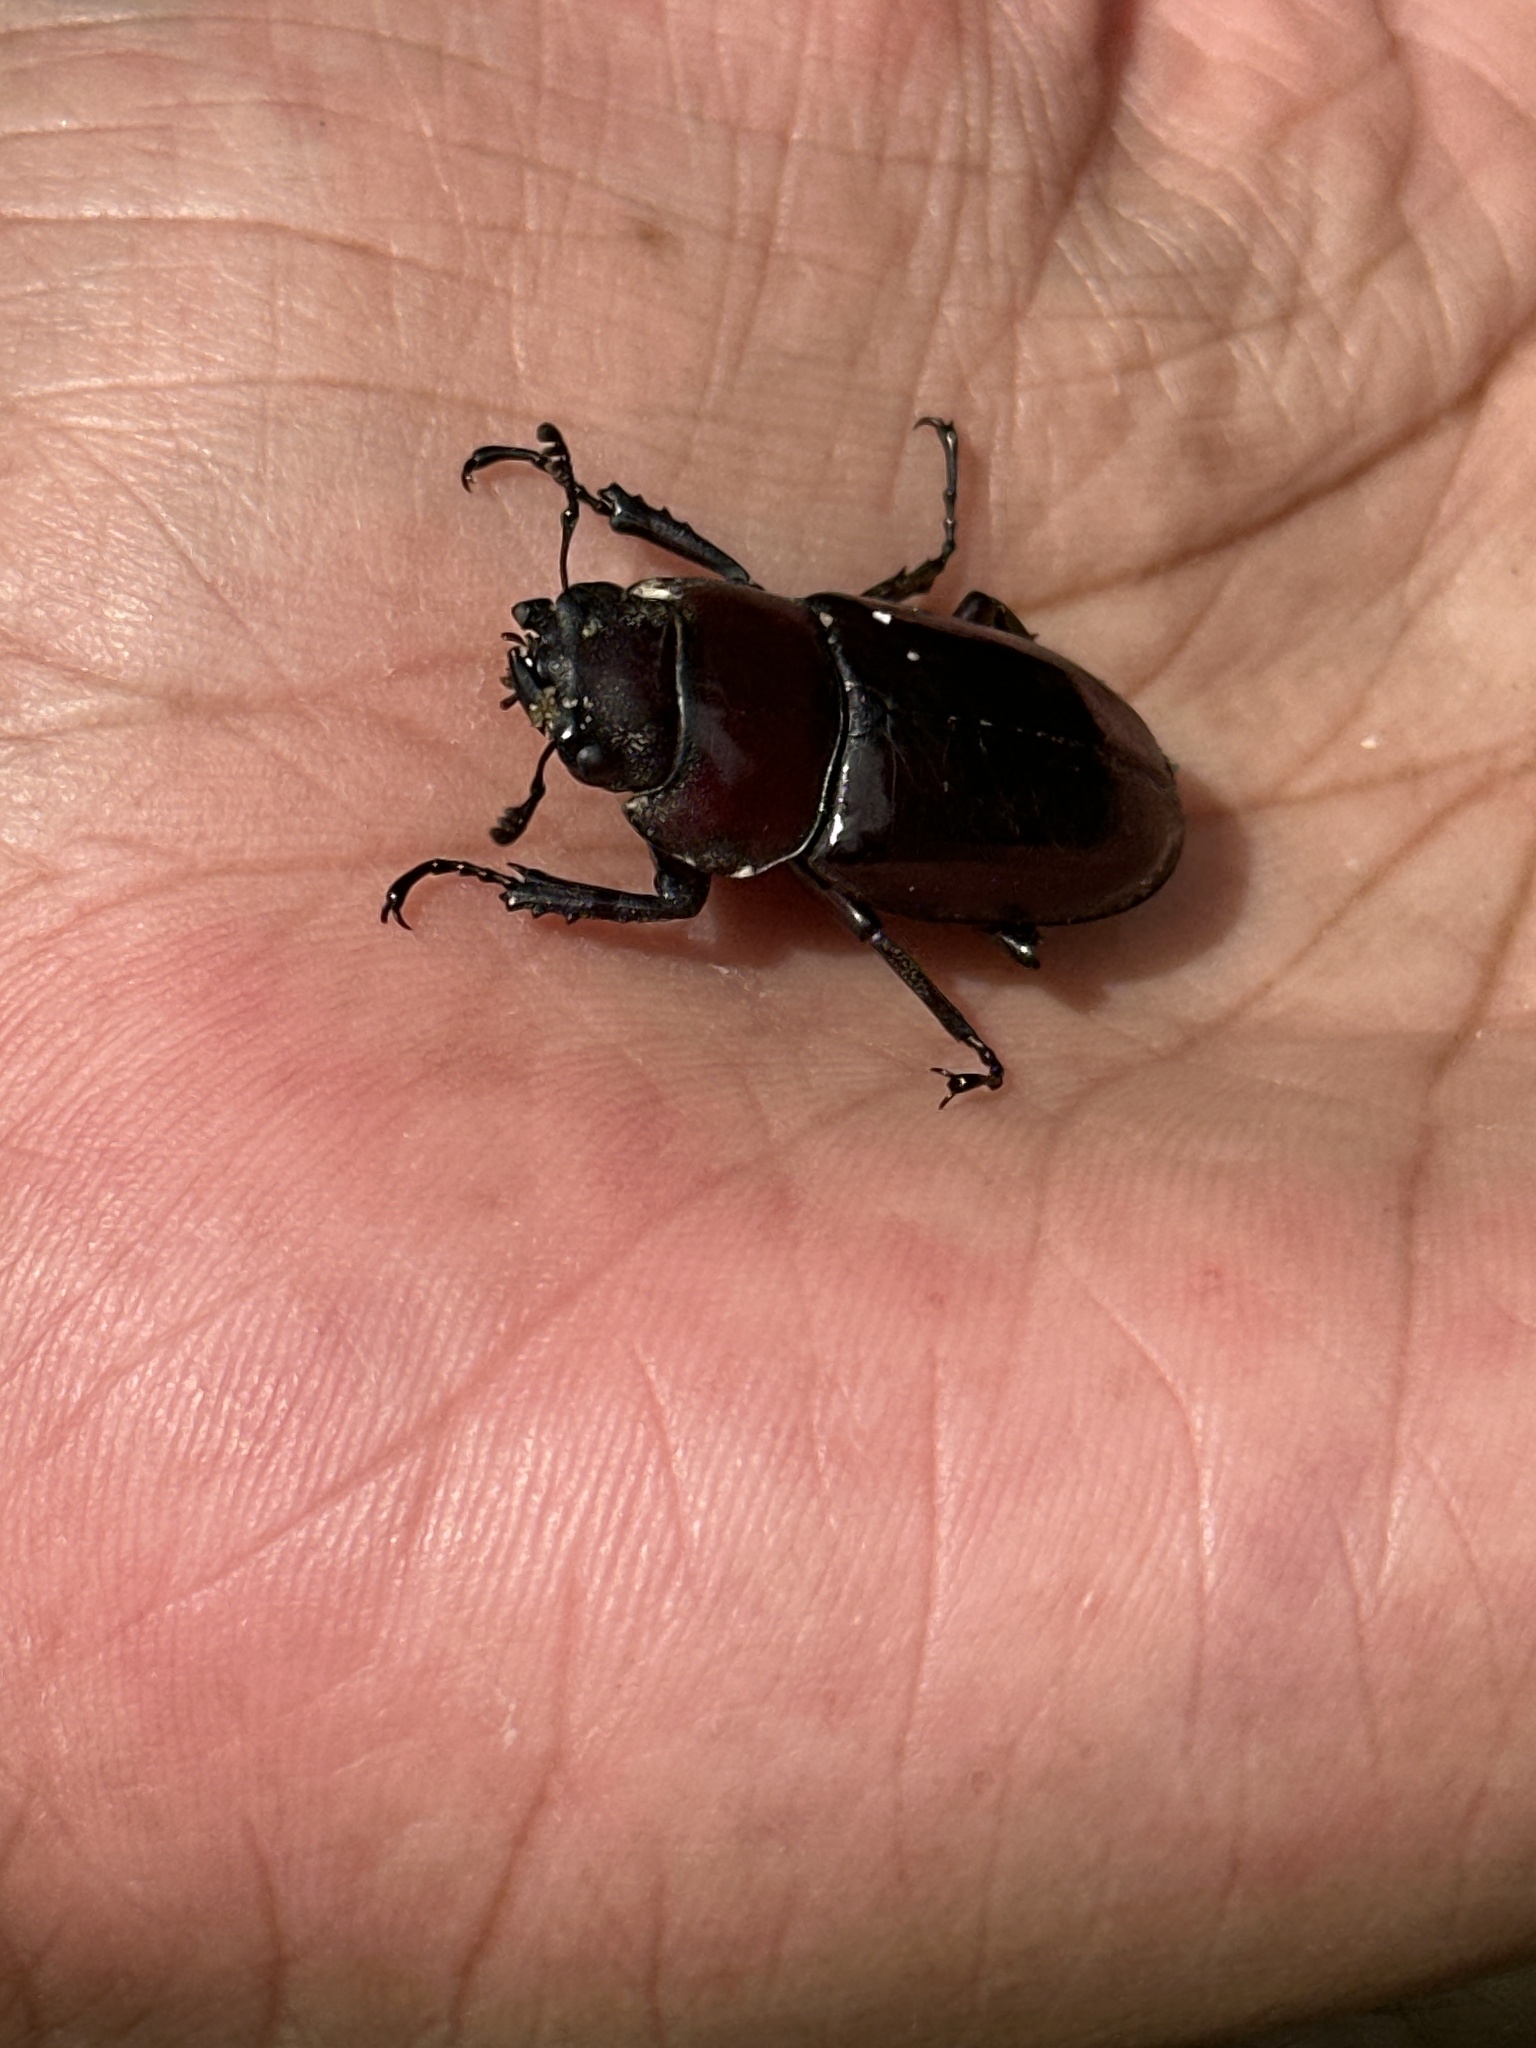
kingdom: Animalia
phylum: Arthropoda
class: Insecta
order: Coleoptera
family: Lucanidae
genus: Prosopocoilus
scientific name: Prosopocoilus dorsalis
